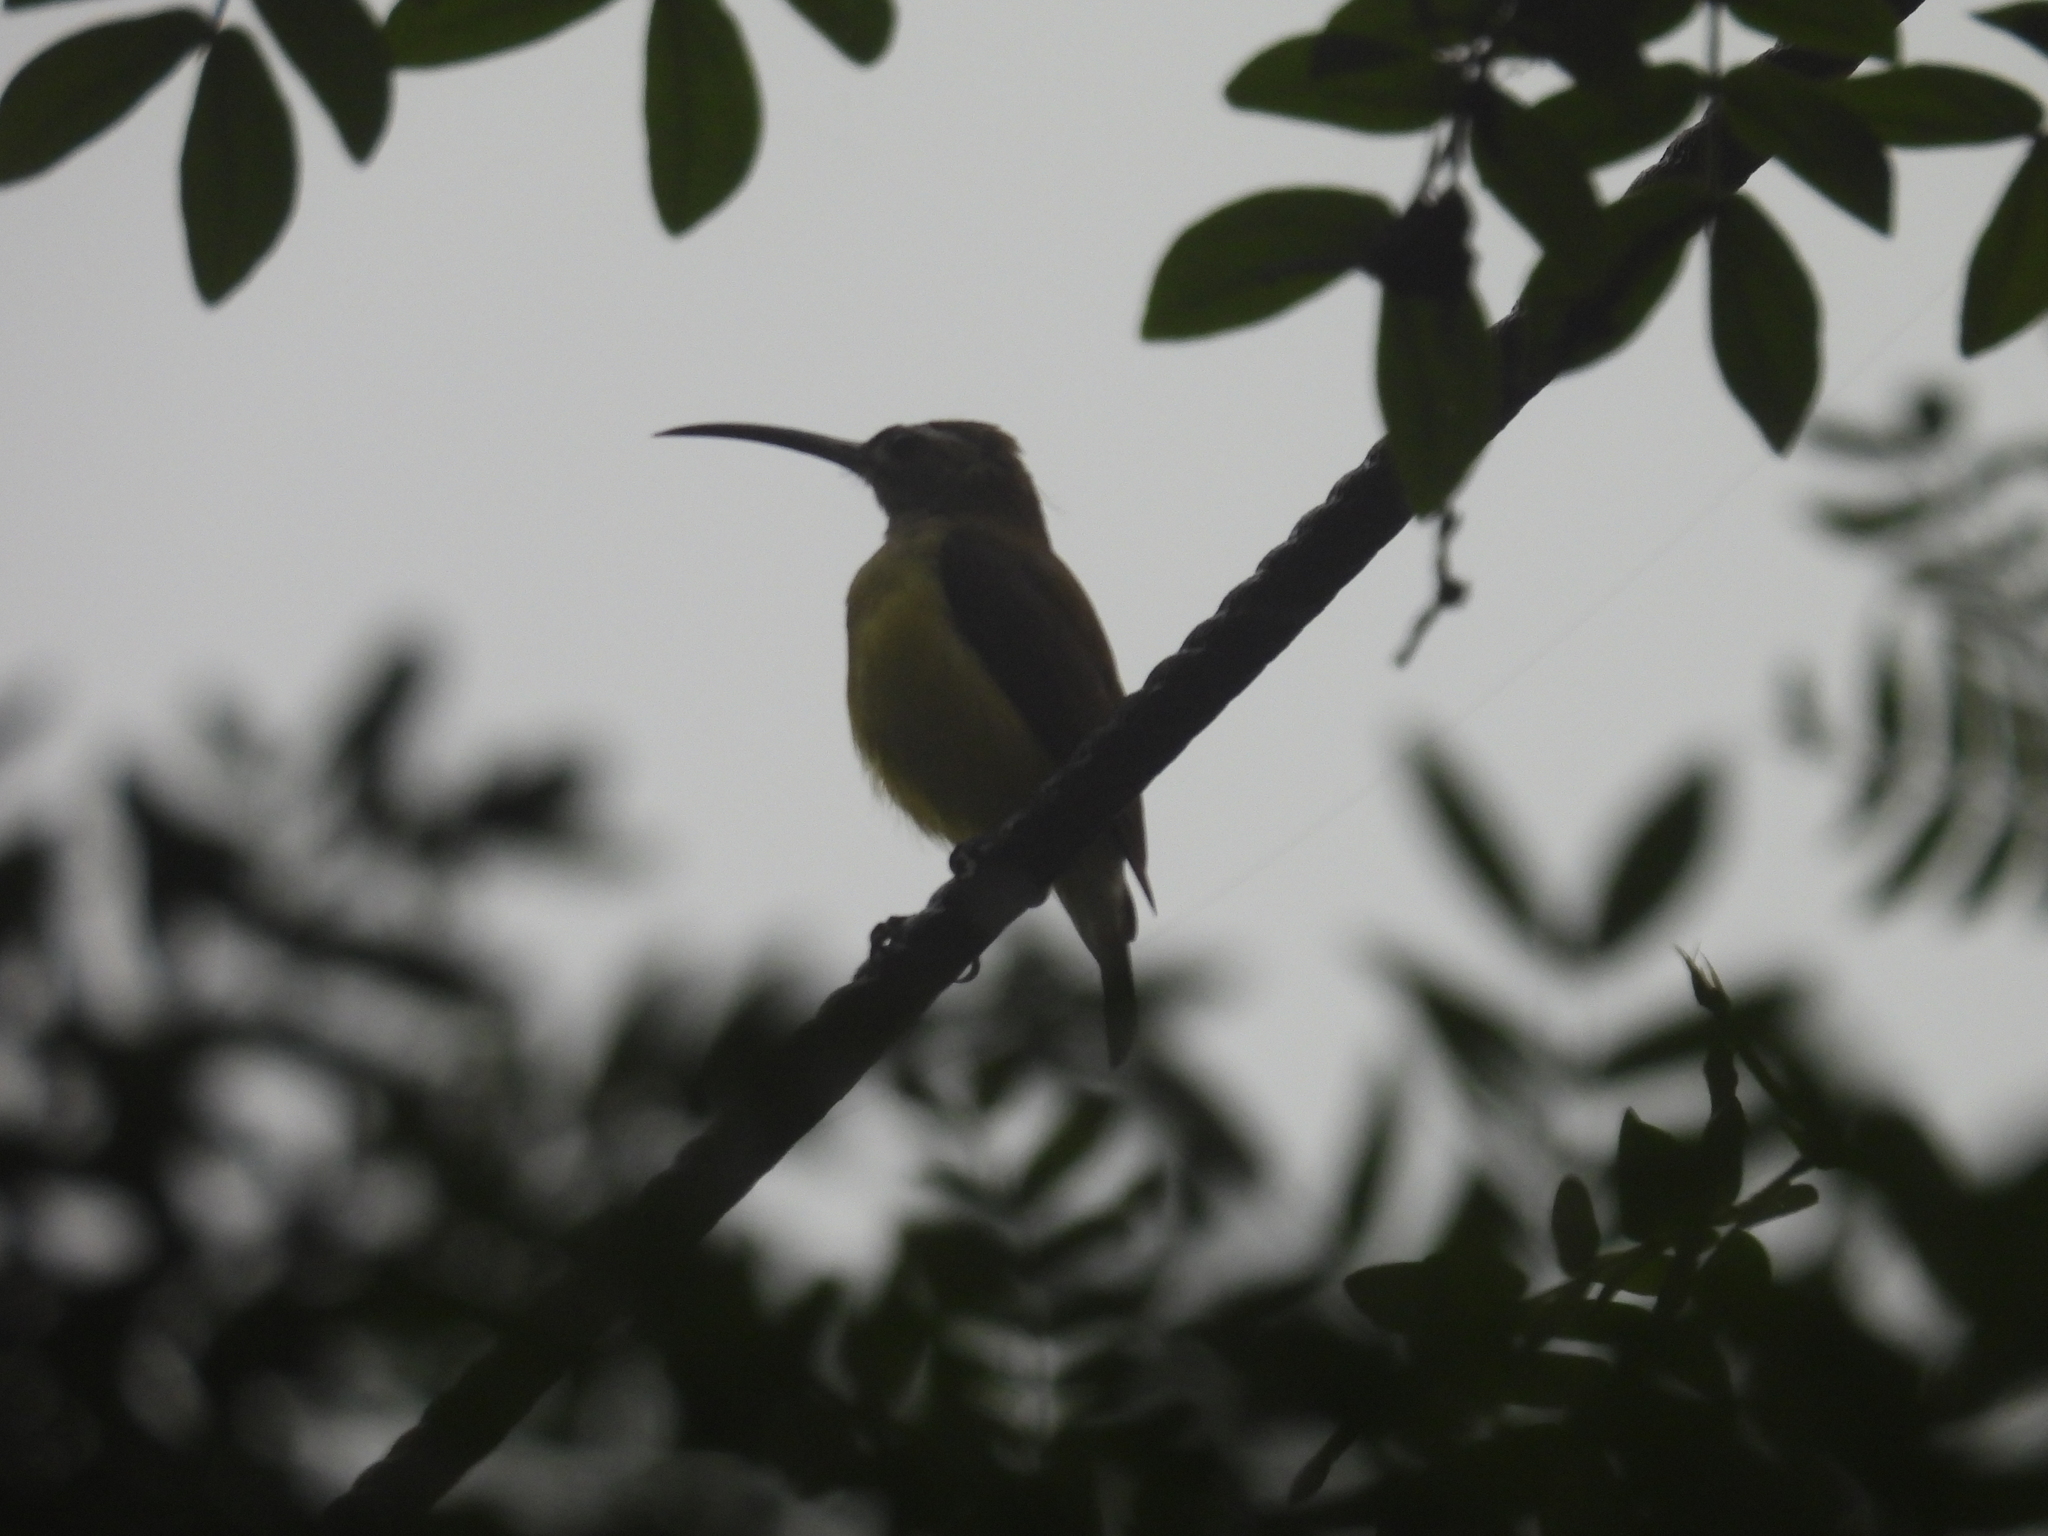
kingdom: Animalia
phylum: Chordata
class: Aves
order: Passeriformes
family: Nectariniidae
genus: Arachnothera
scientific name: Arachnothera longirostra
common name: Little spiderhunter
